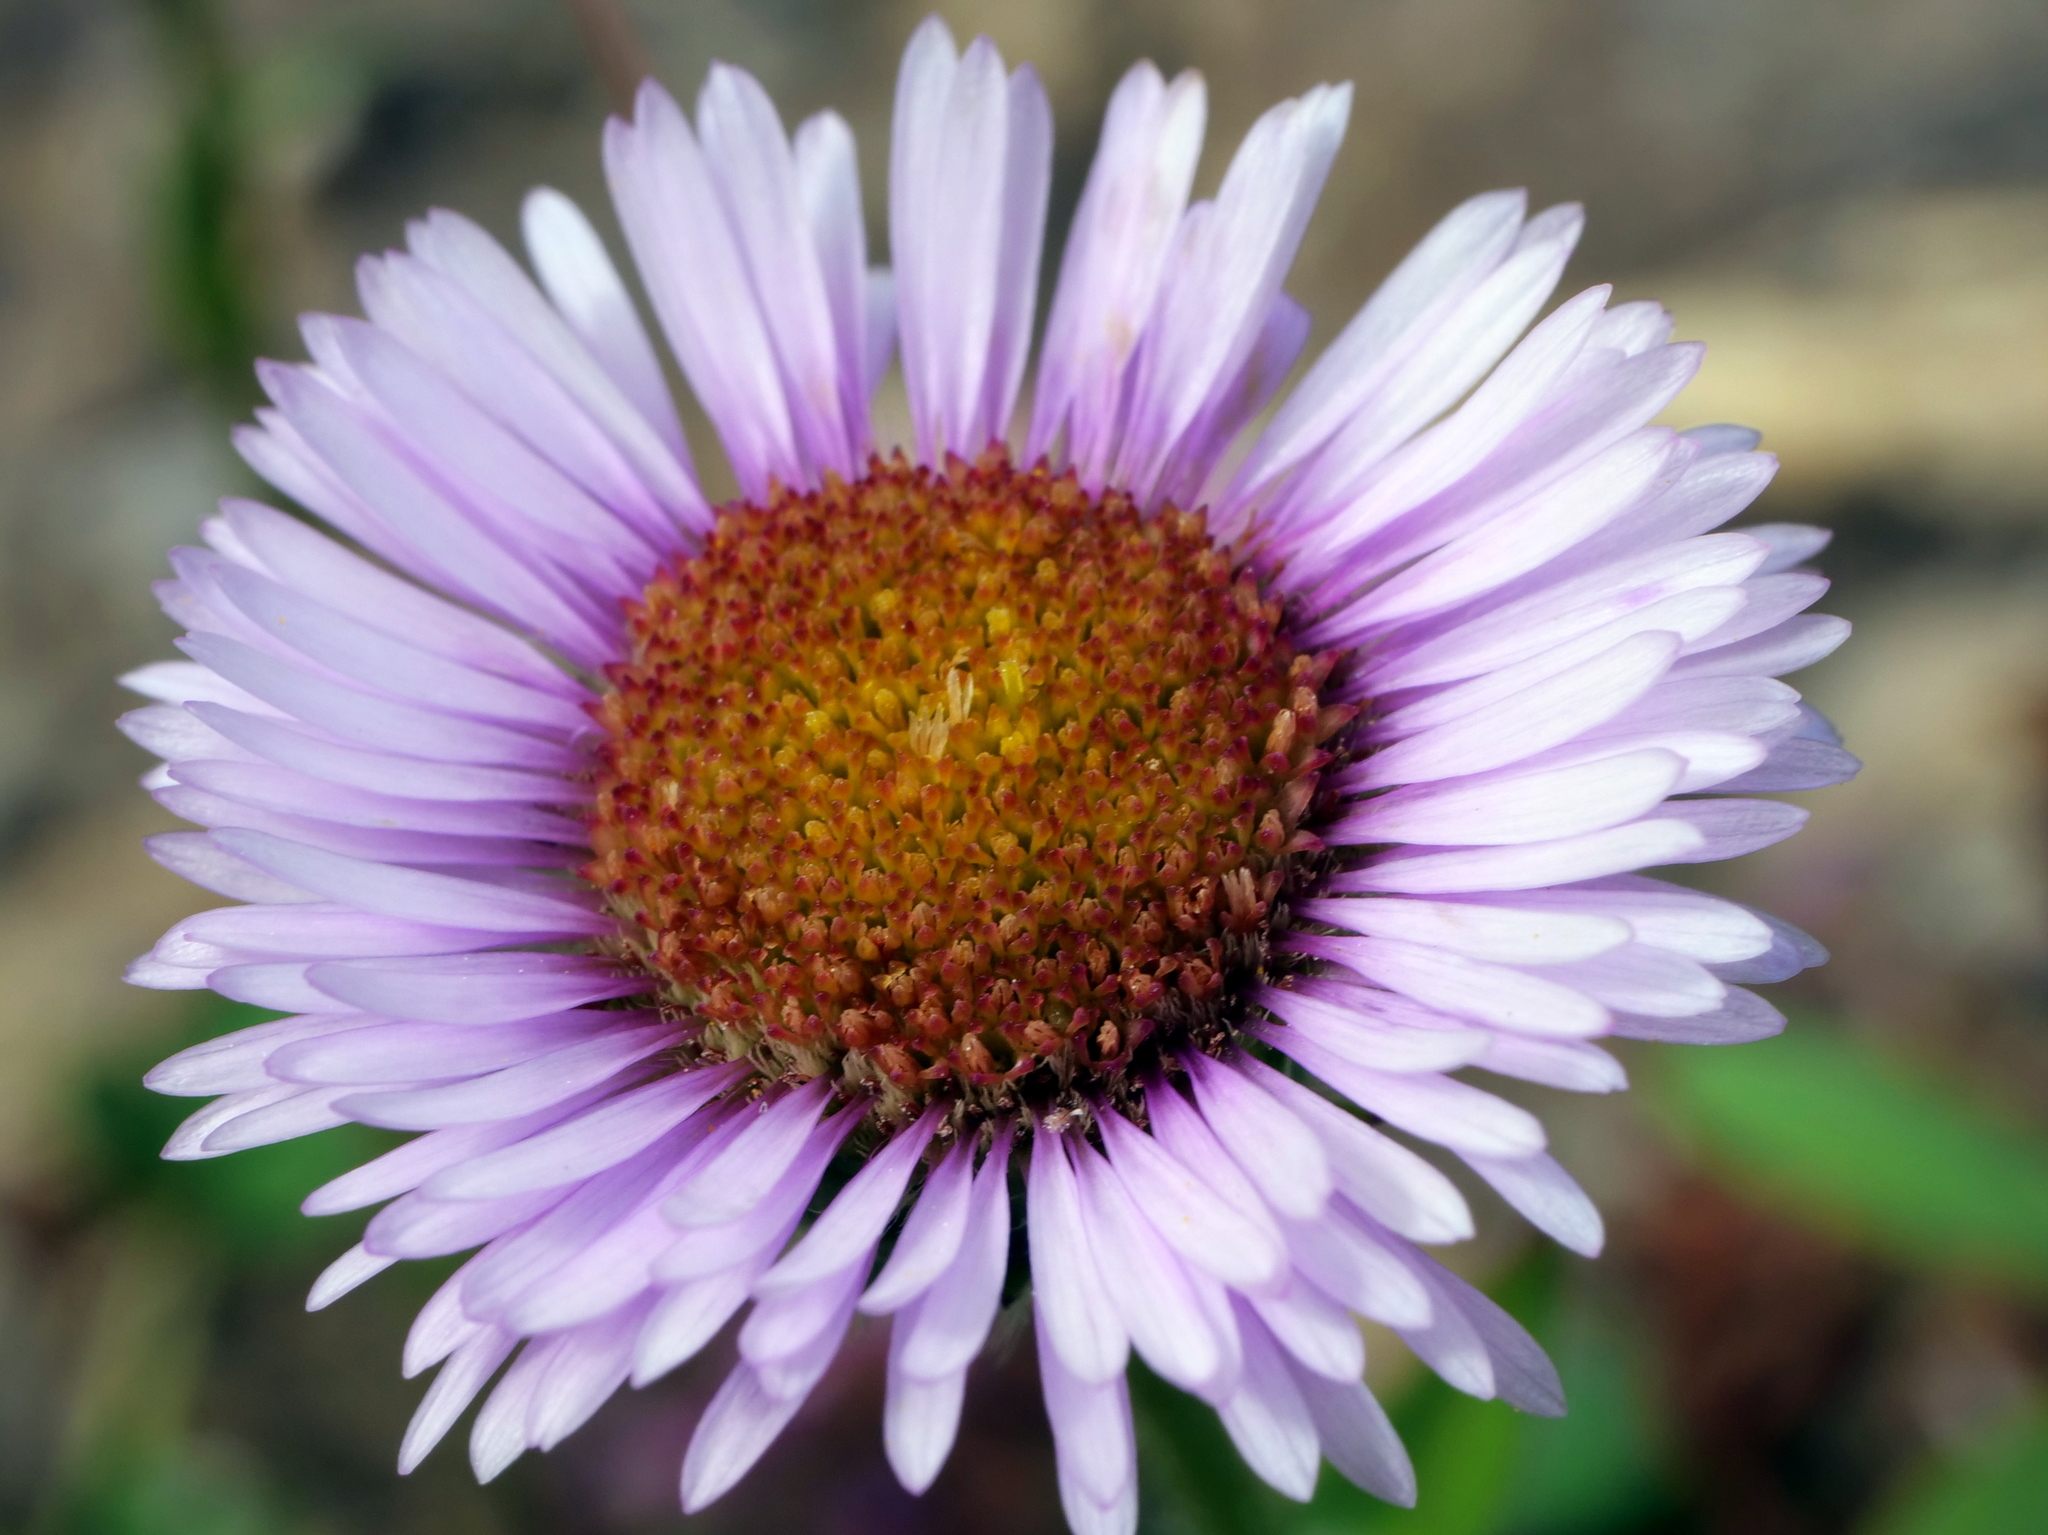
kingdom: Plantae
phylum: Tracheophyta
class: Magnoliopsida
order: Asterales
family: Asteraceae
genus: Erigeron
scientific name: Erigeron alpinus
